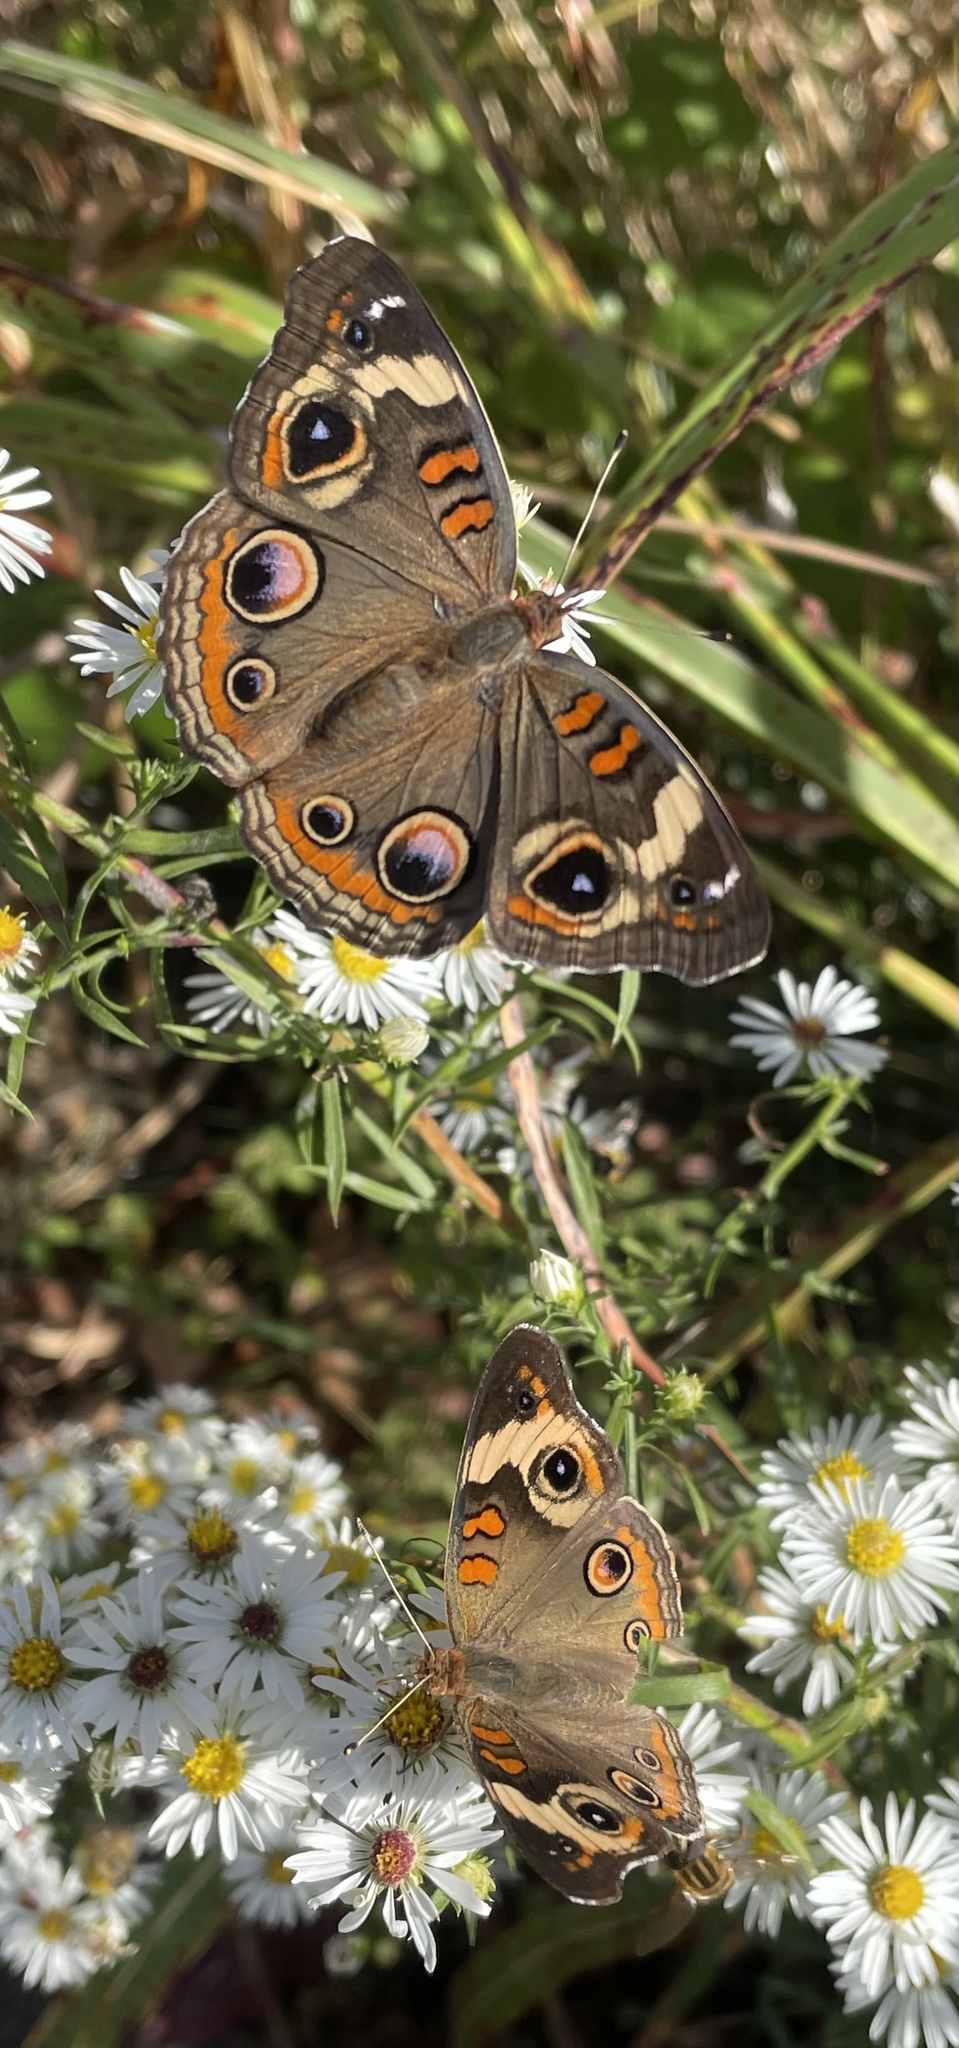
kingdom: Animalia
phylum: Arthropoda
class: Insecta
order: Lepidoptera
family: Nymphalidae
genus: Junonia
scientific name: Junonia coenia
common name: Common buckeye
